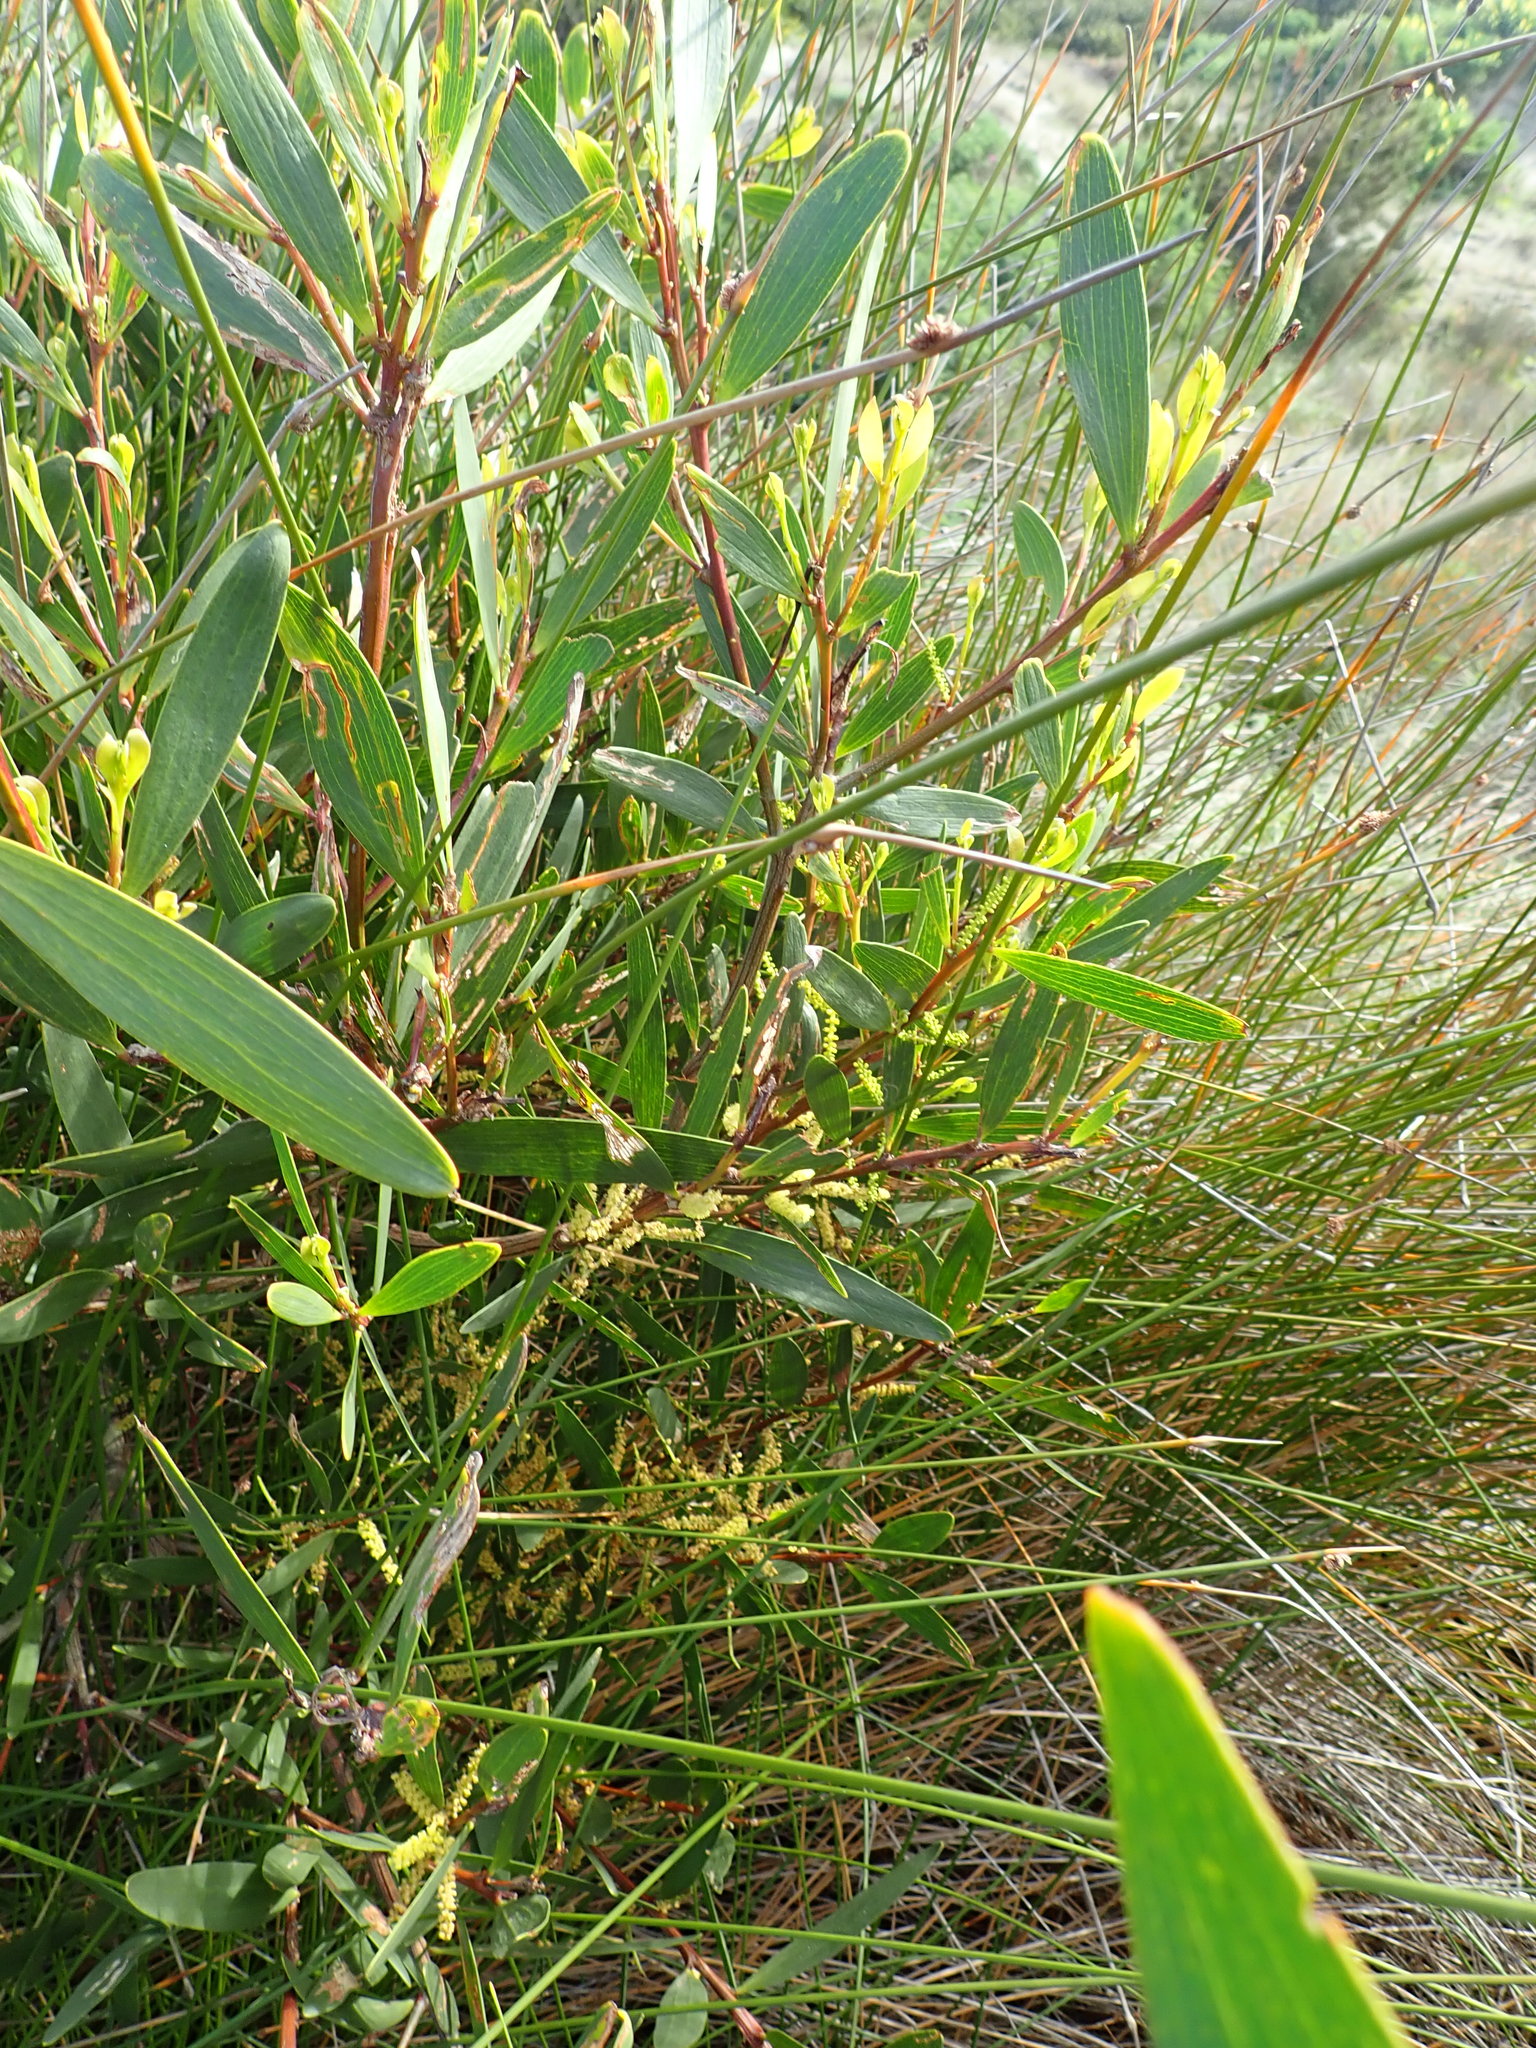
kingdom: Plantae
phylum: Tracheophyta
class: Magnoliopsida
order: Fabales
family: Fabaceae
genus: Acacia
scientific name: Acacia longifolia
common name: Sydney golden wattle
